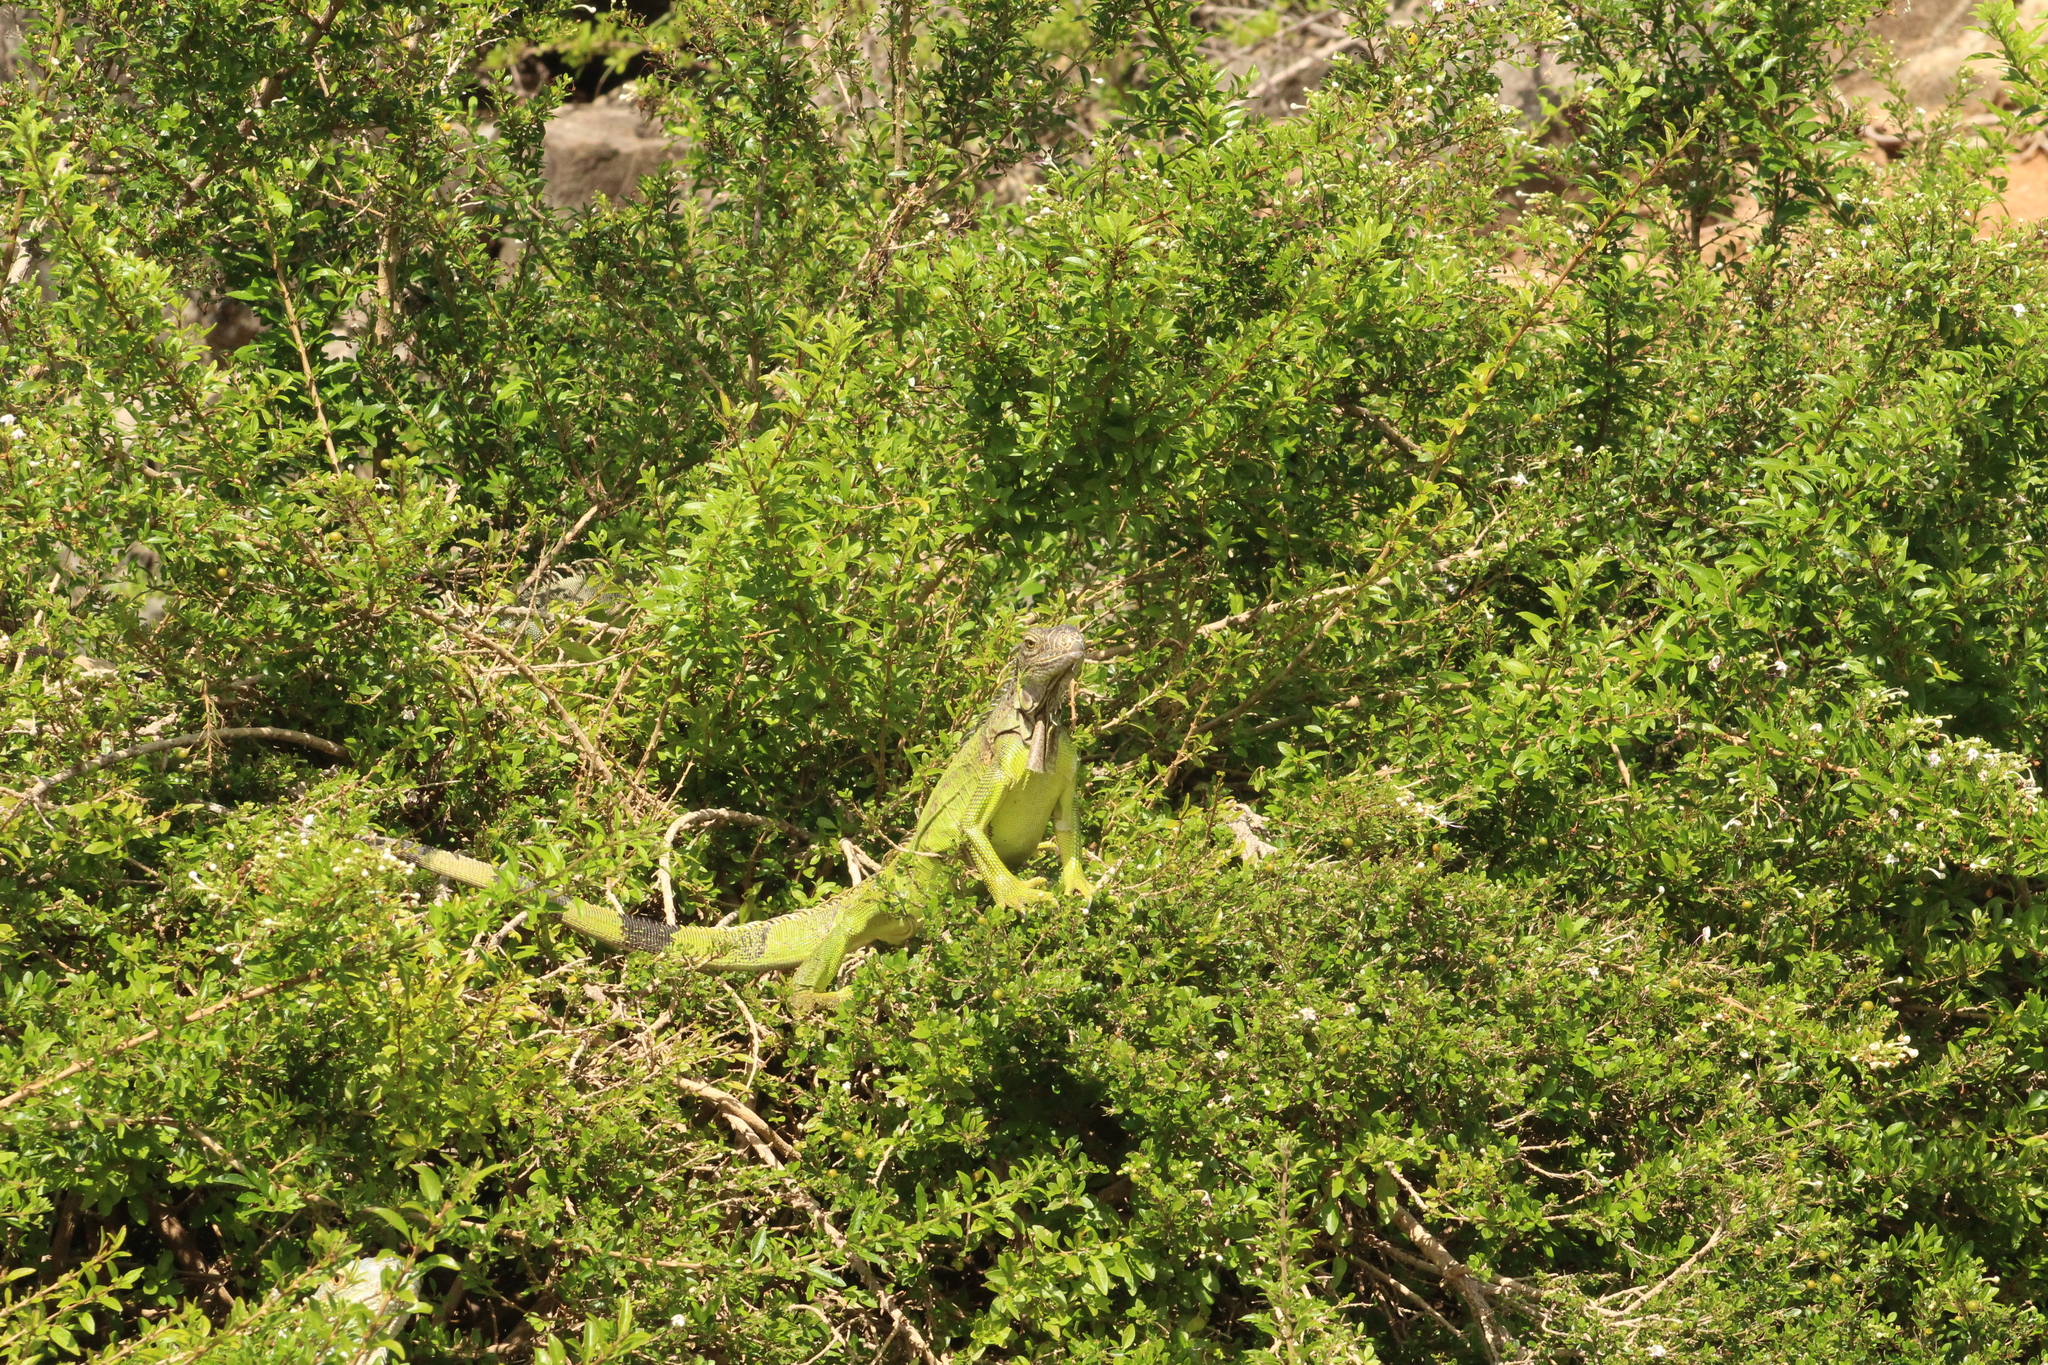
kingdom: Animalia
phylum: Chordata
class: Squamata
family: Iguanidae
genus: Iguana
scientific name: Iguana iguana
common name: Green iguana
